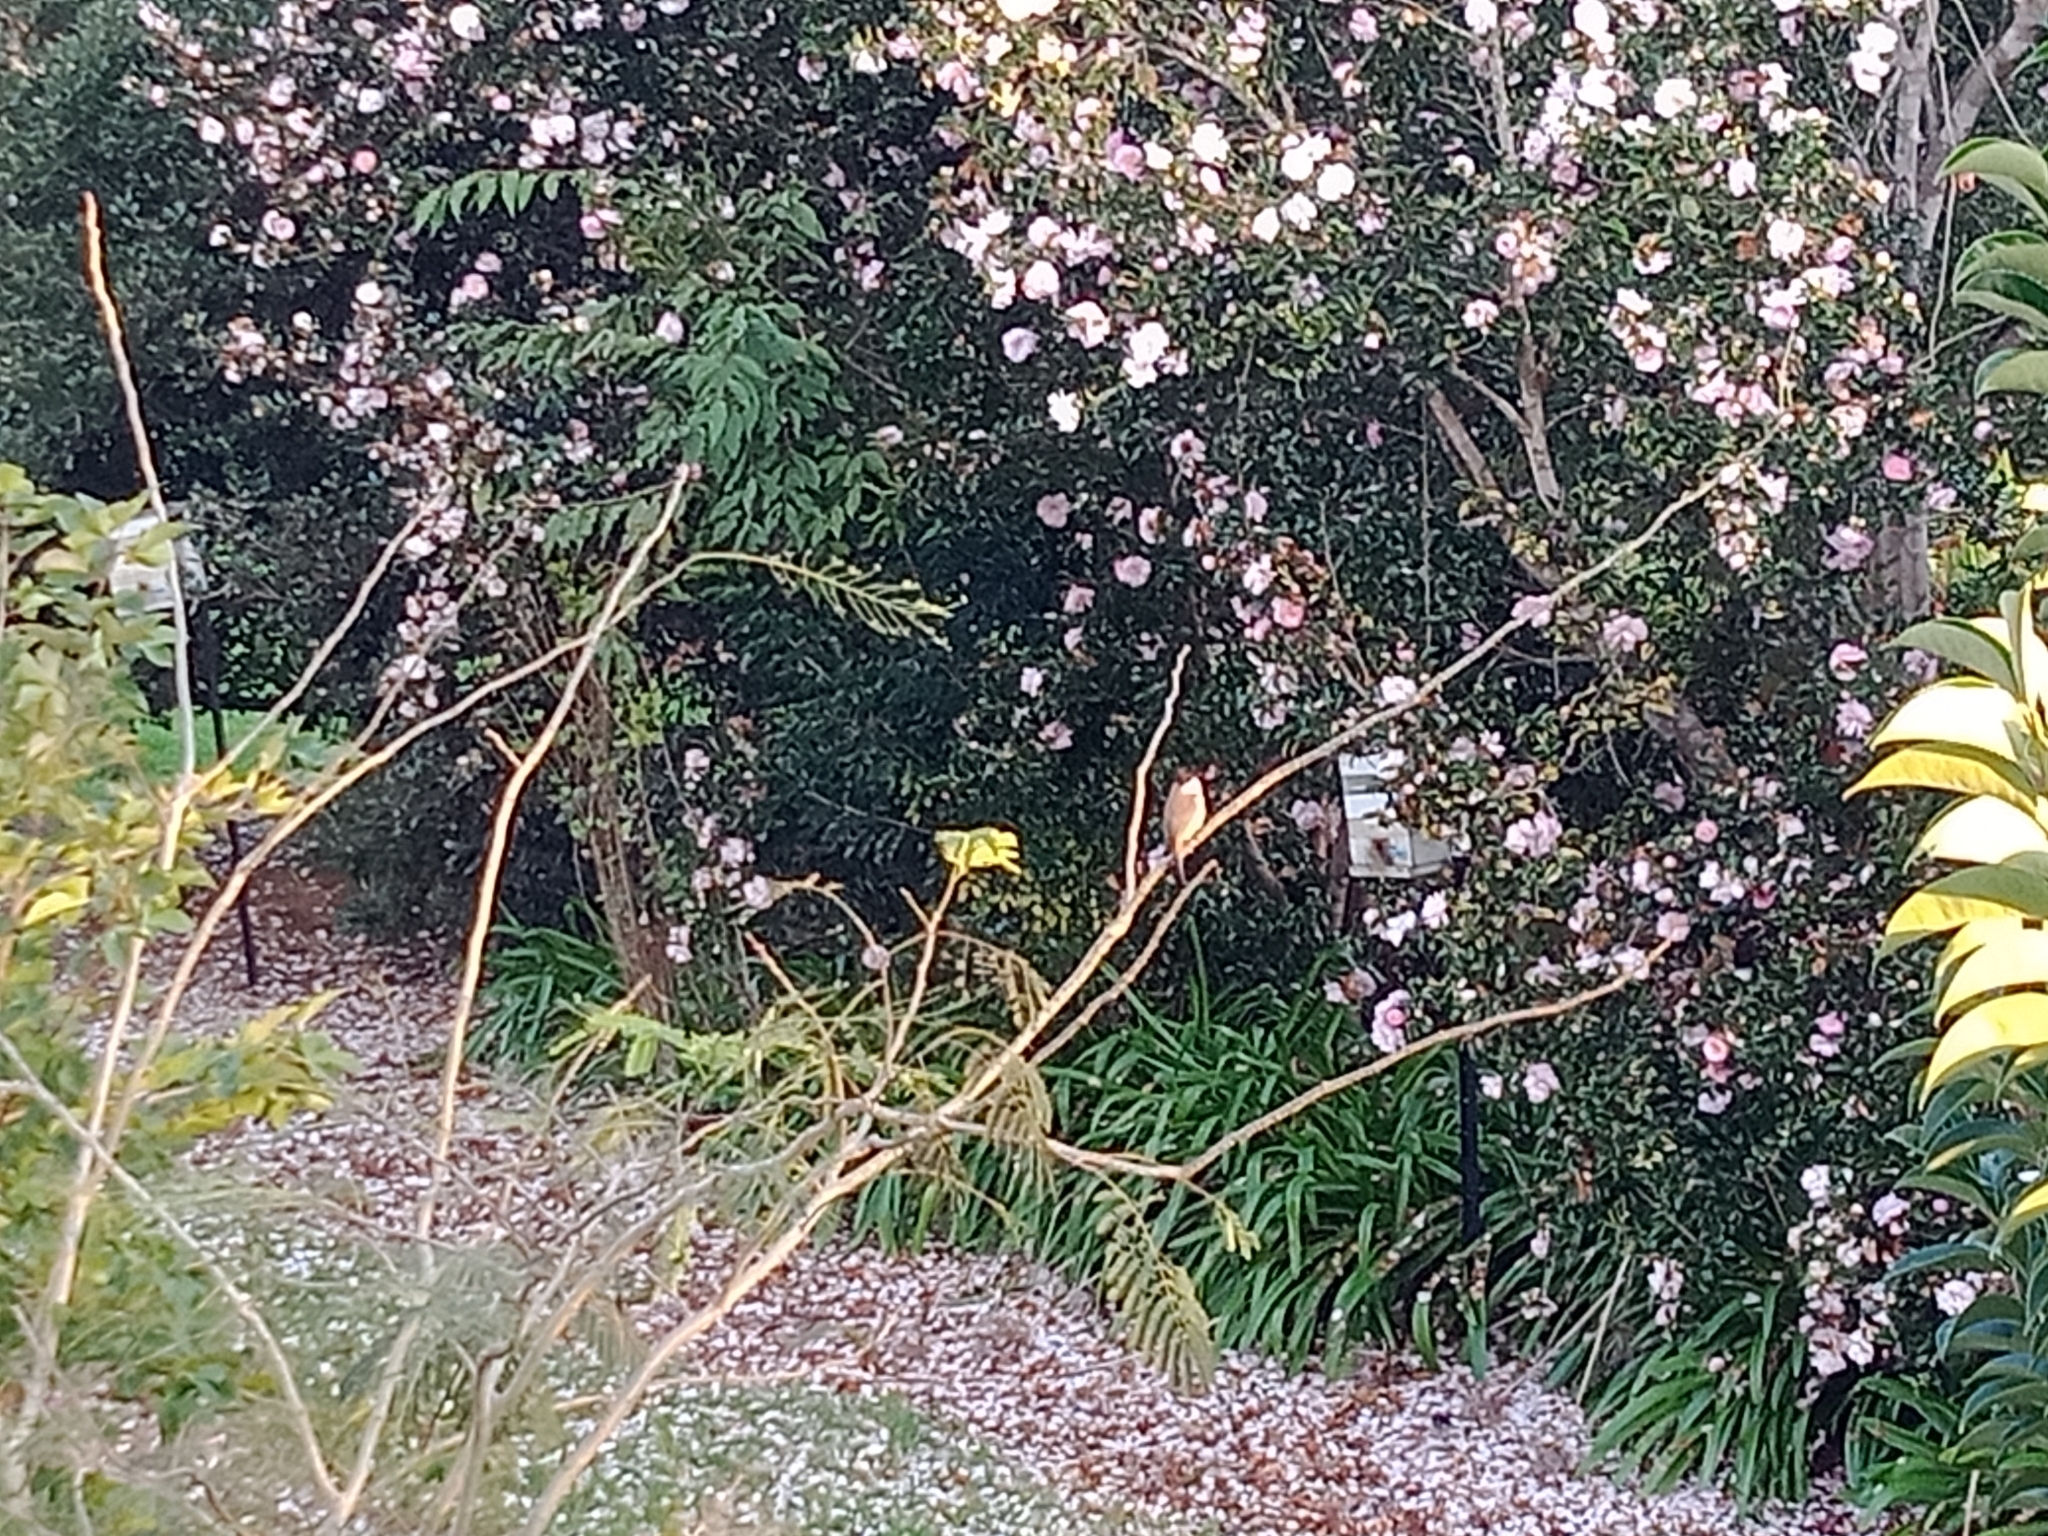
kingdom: Animalia
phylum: Chordata
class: Aves
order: Passeriformes
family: Pycnonotidae
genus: Pycnonotus
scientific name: Pycnonotus jocosus
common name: Red-whiskered bulbul
